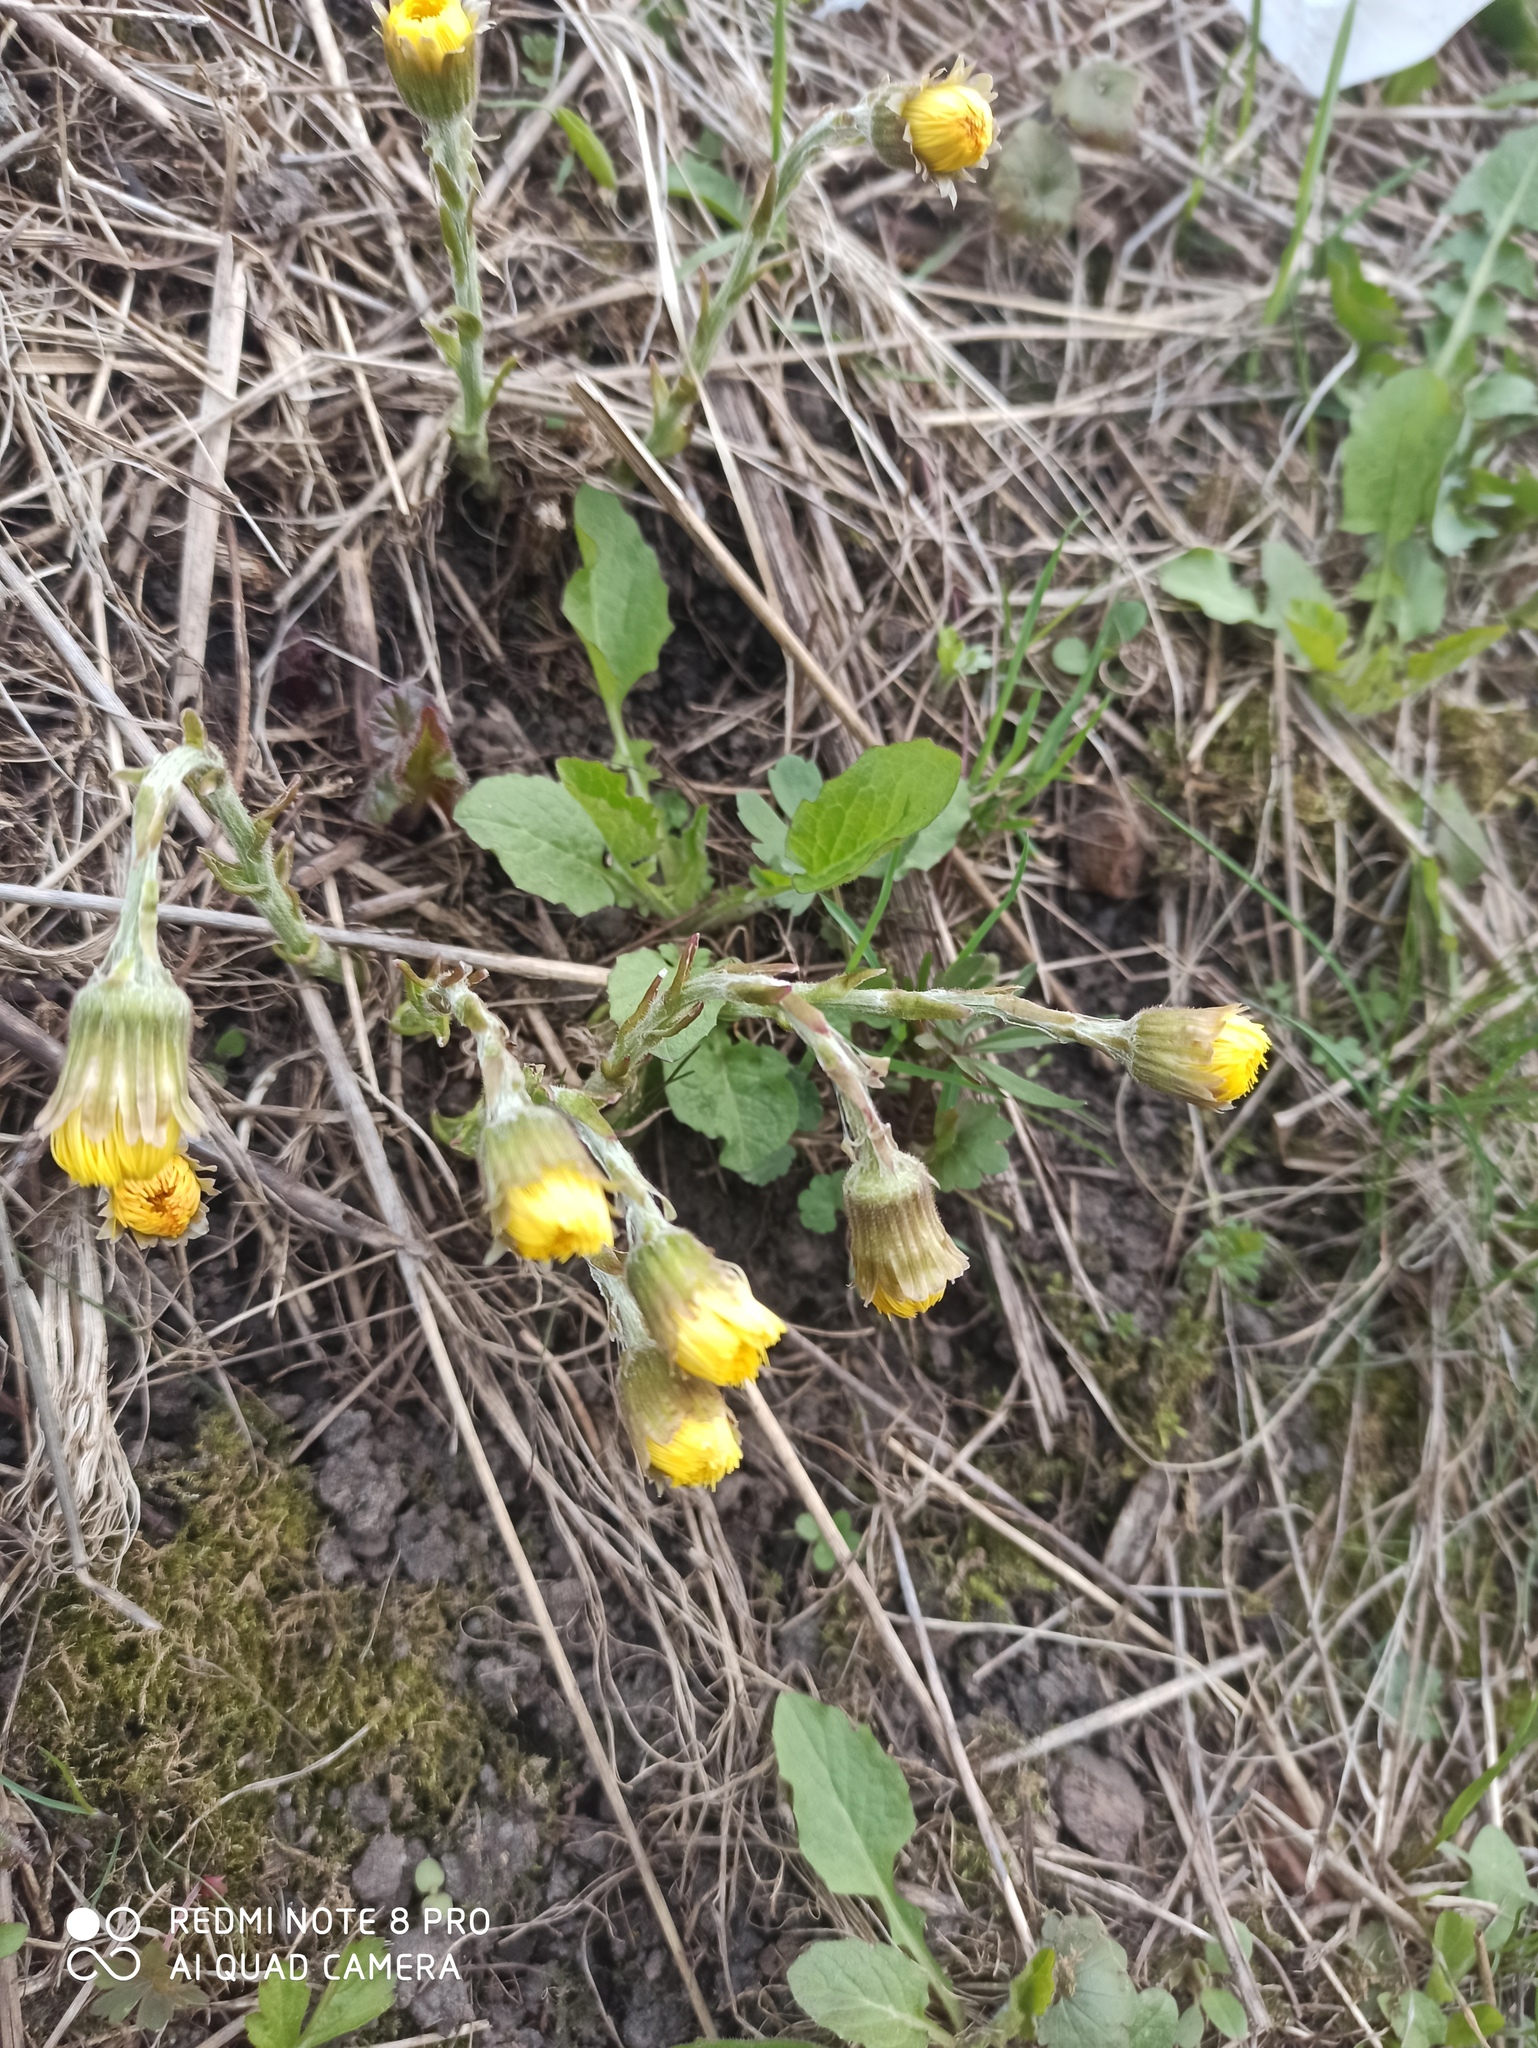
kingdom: Plantae
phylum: Tracheophyta
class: Magnoliopsida
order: Asterales
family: Asteraceae
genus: Tussilago
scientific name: Tussilago farfara
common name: Coltsfoot
